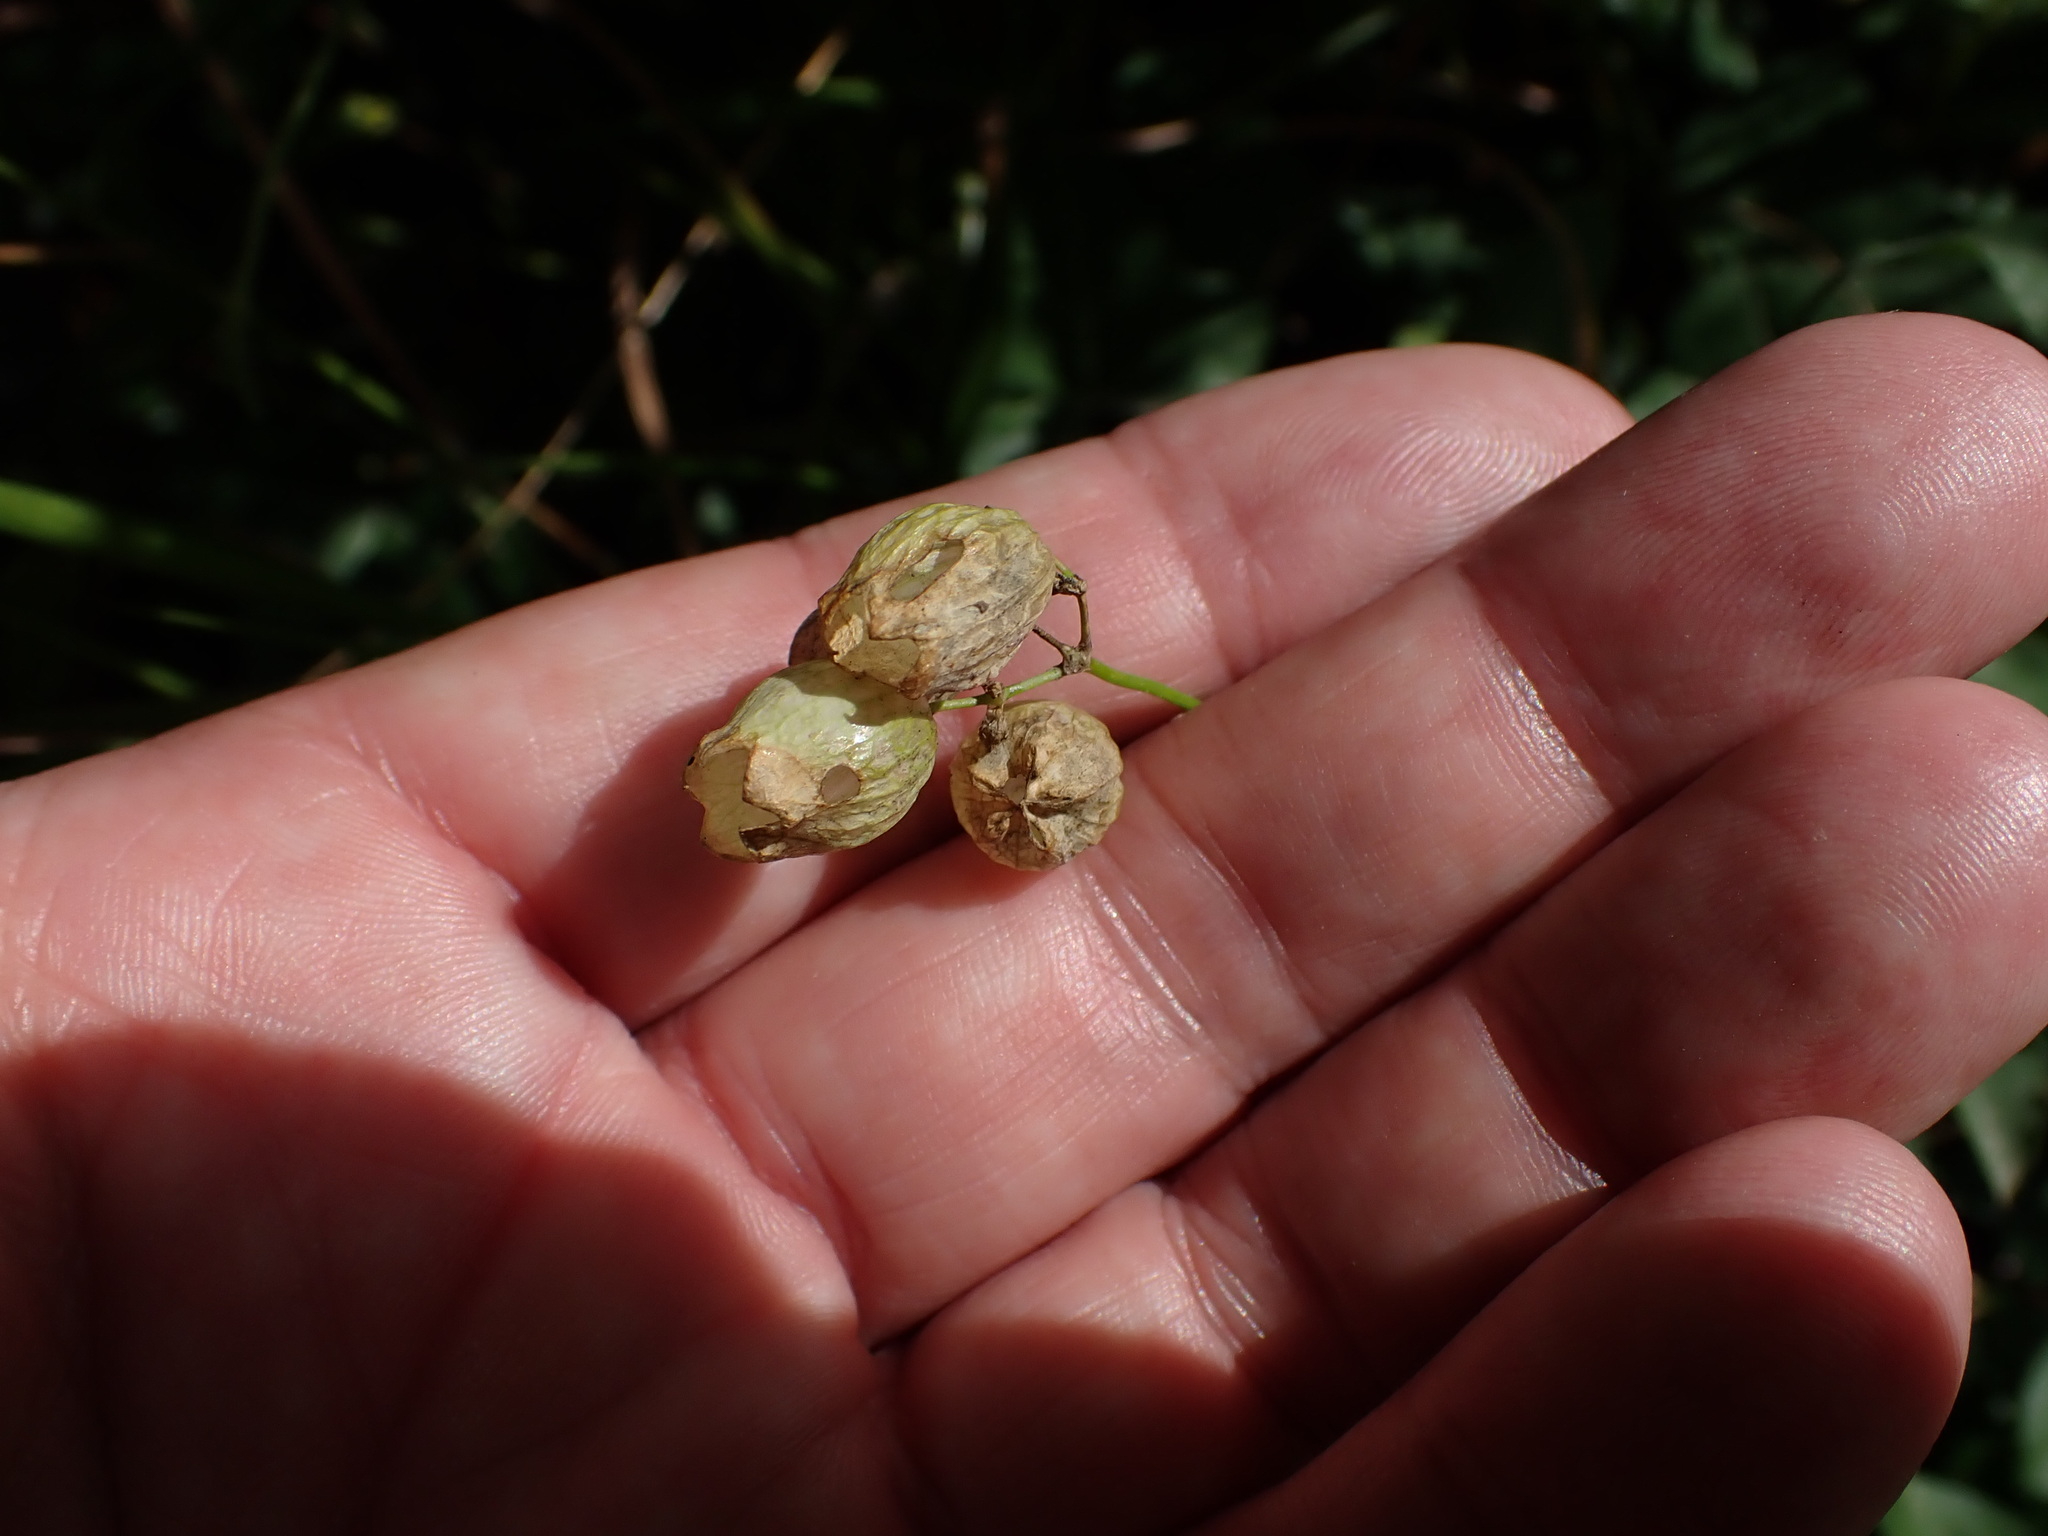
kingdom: Plantae
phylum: Tracheophyta
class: Magnoliopsida
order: Caryophyllales
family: Caryophyllaceae
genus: Silene
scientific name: Silene vulgaris
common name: Bladder campion
